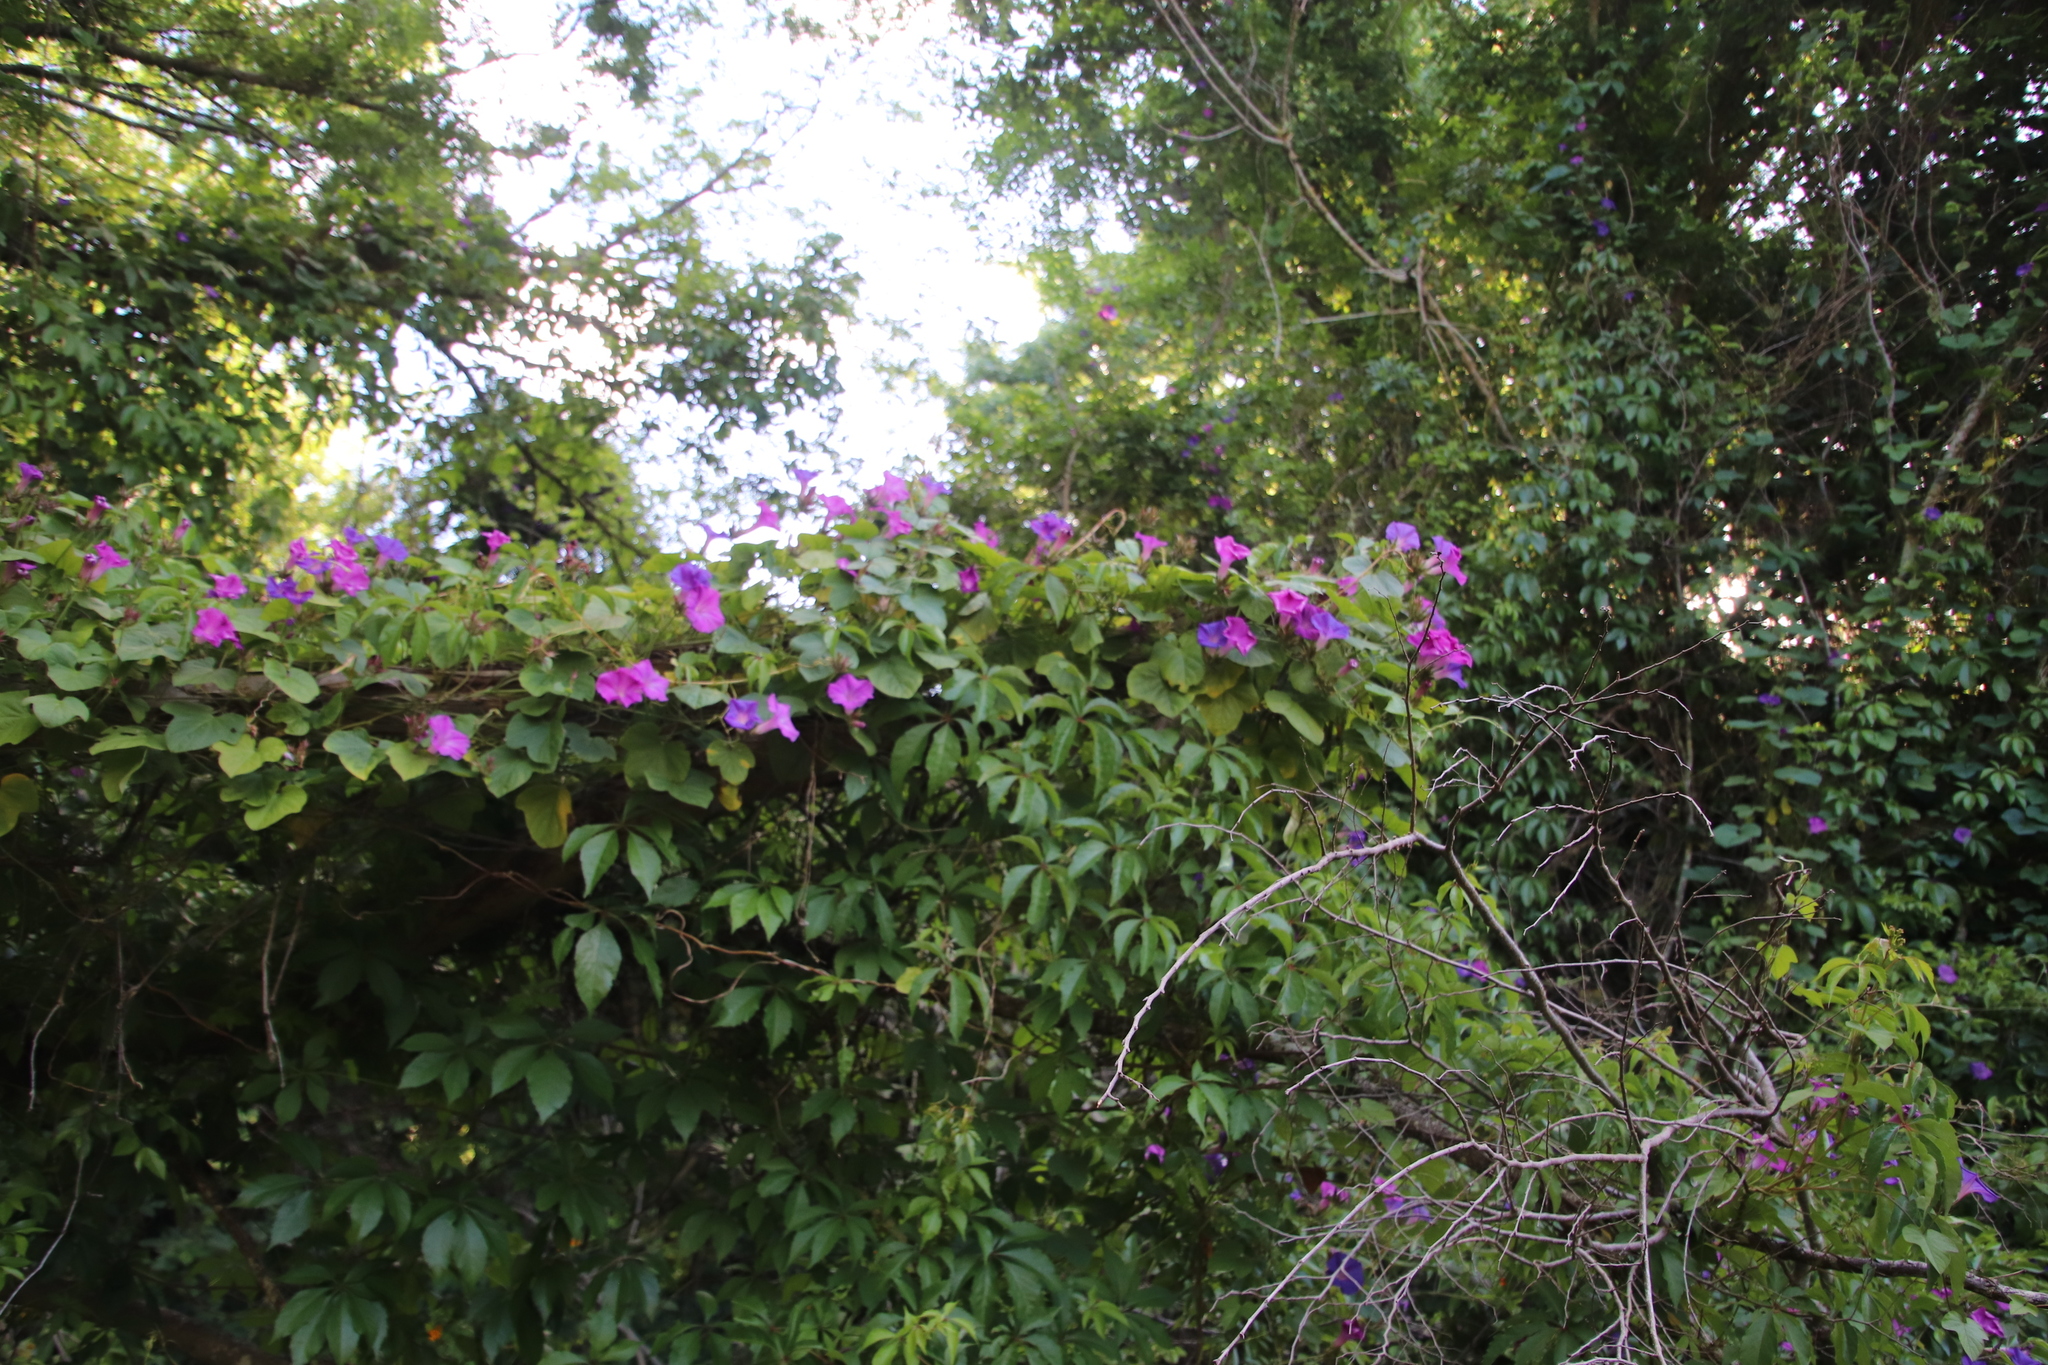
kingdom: Plantae
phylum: Tracheophyta
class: Magnoliopsida
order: Solanales
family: Convolvulaceae
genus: Ipomoea
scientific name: Ipomoea indica
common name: Blue dawnflower
